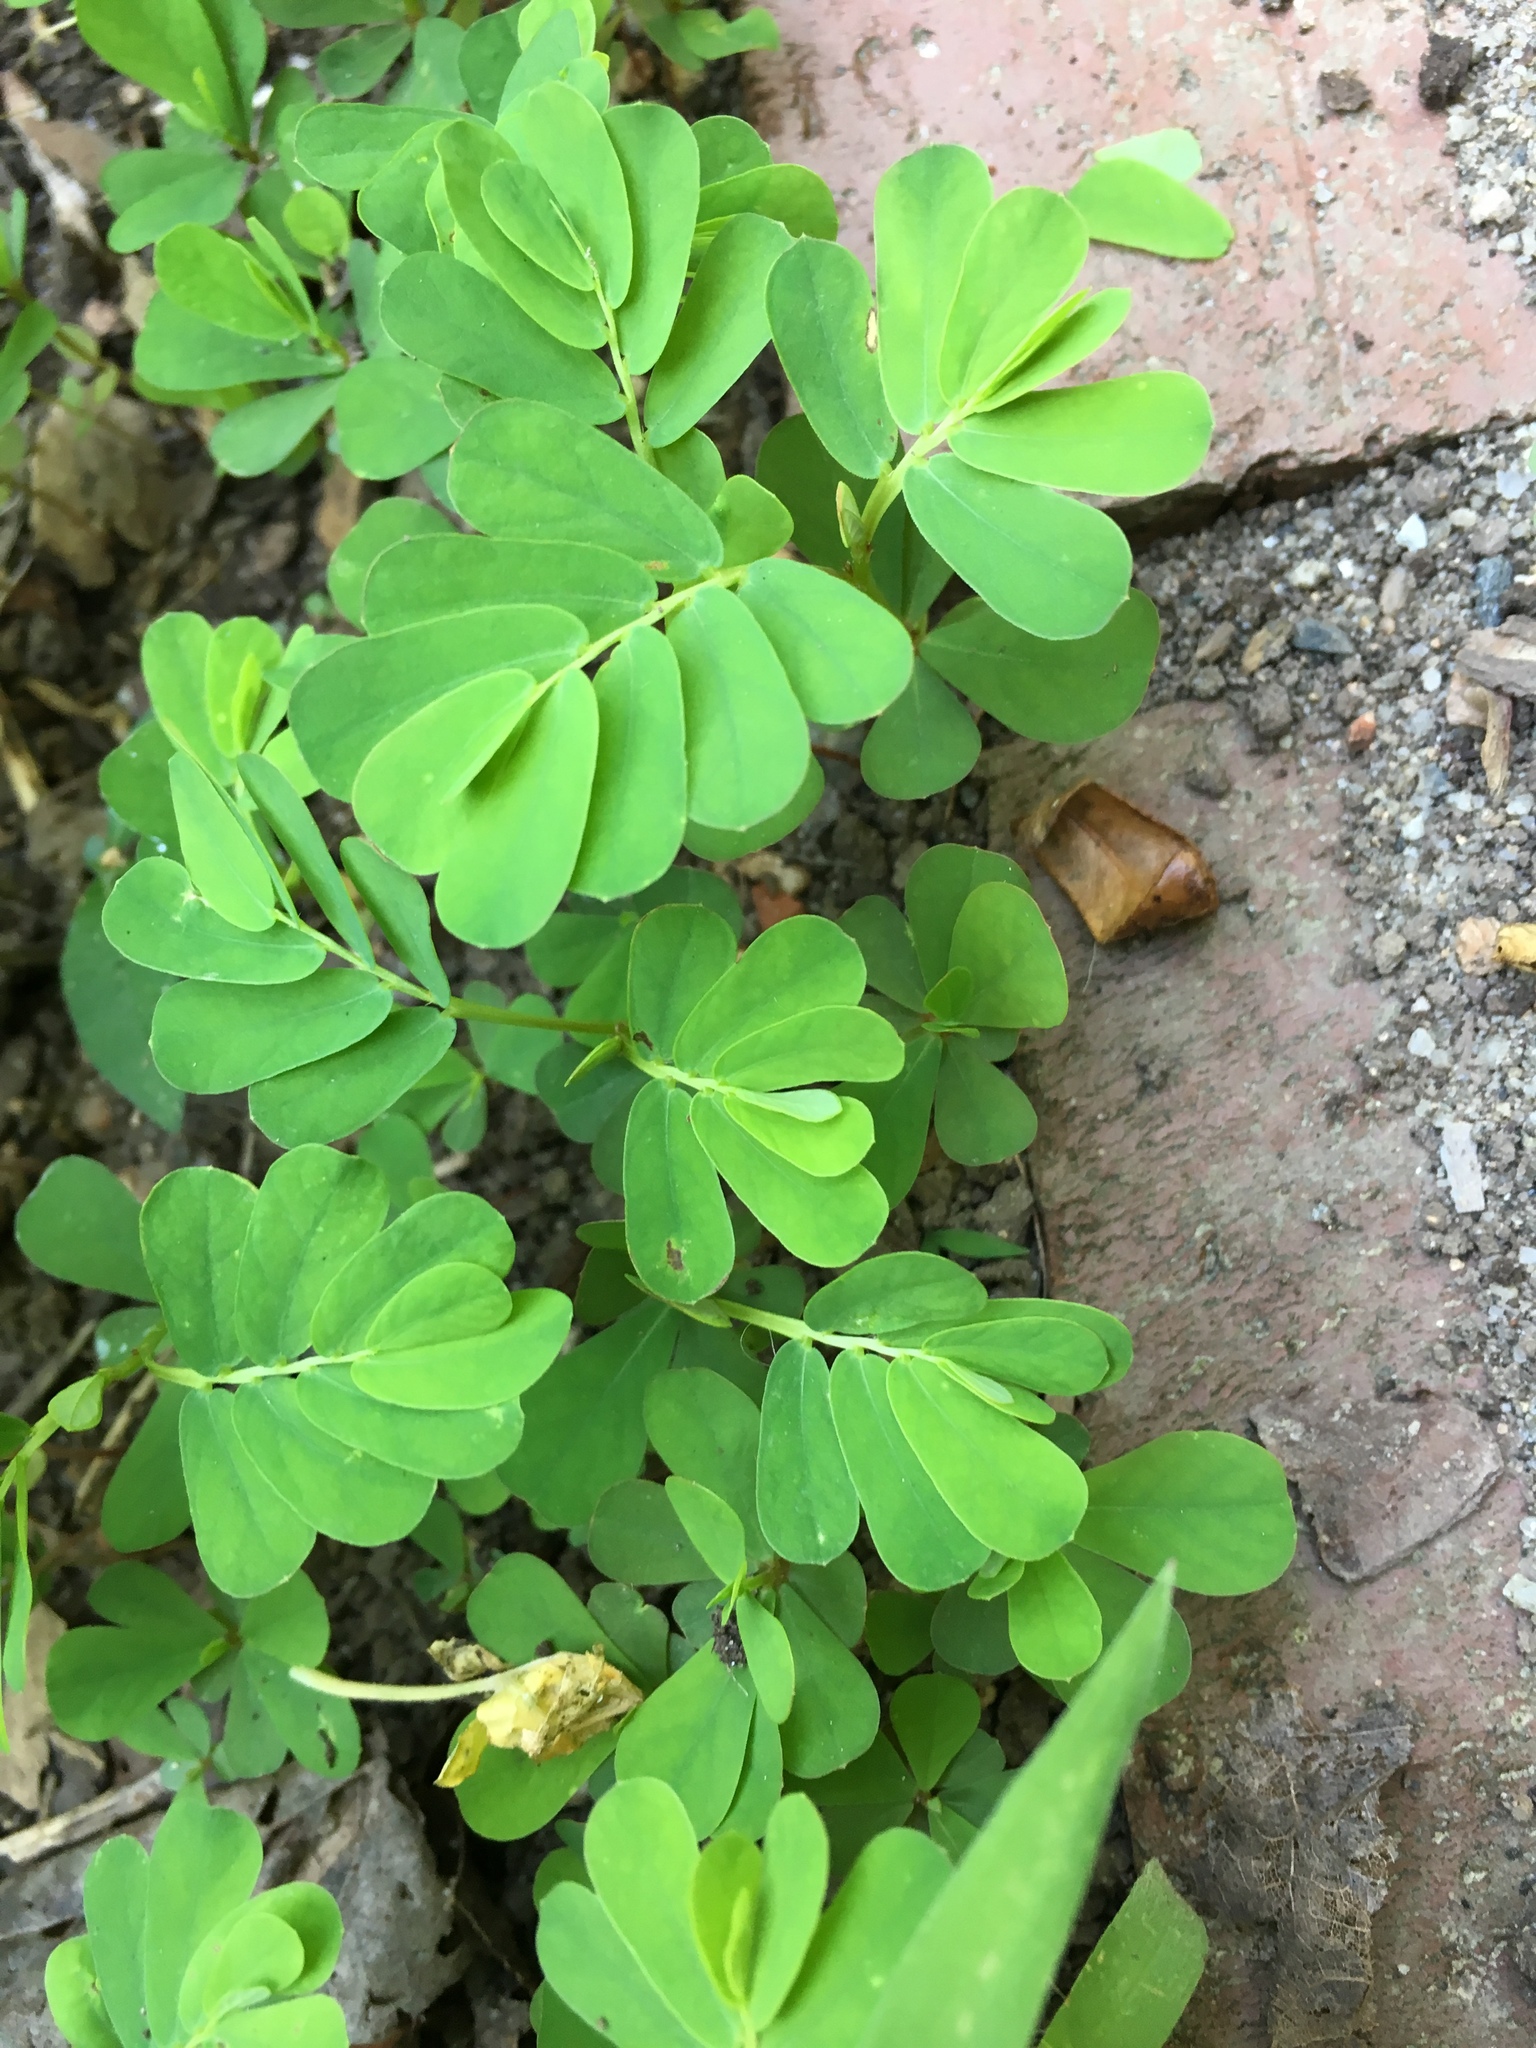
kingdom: Plantae
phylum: Tracheophyta
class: Magnoliopsida
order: Malpighiales
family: Phyllanthaceae
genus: Phyllanthus
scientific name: Phyllanthus urinaria
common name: Chamber bitter
